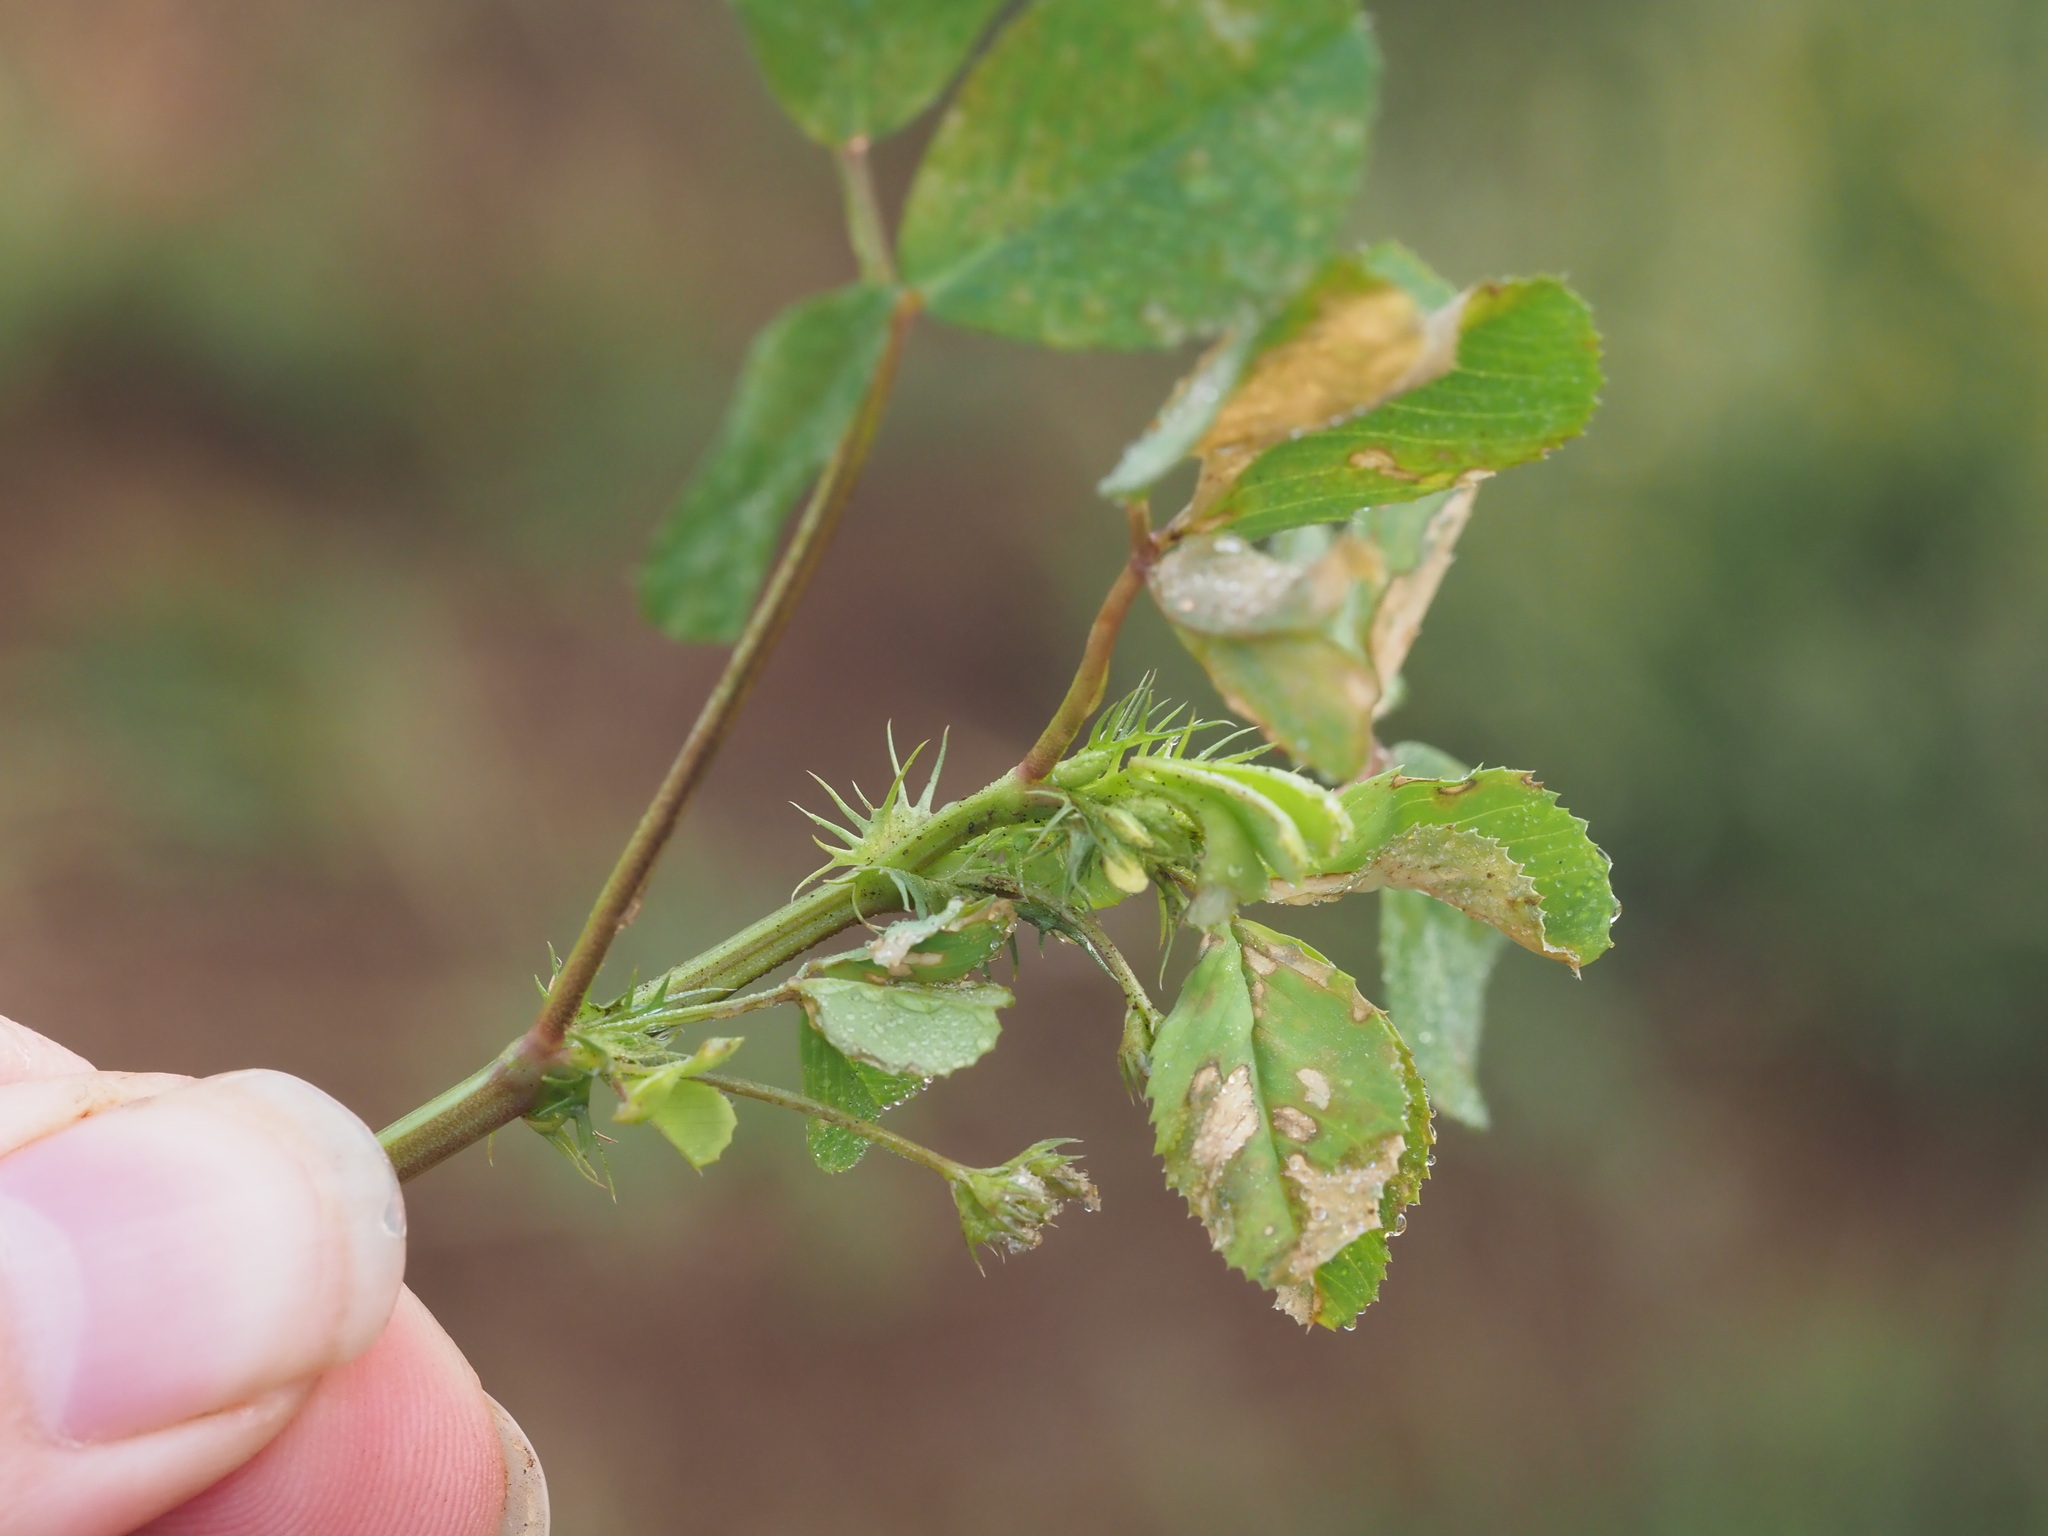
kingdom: Plantae
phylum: Tracheophyta
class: Magnoliopsida
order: Fabales
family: Fabaceae
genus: Medicago
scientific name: Medicago polymorpha
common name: Burclover
